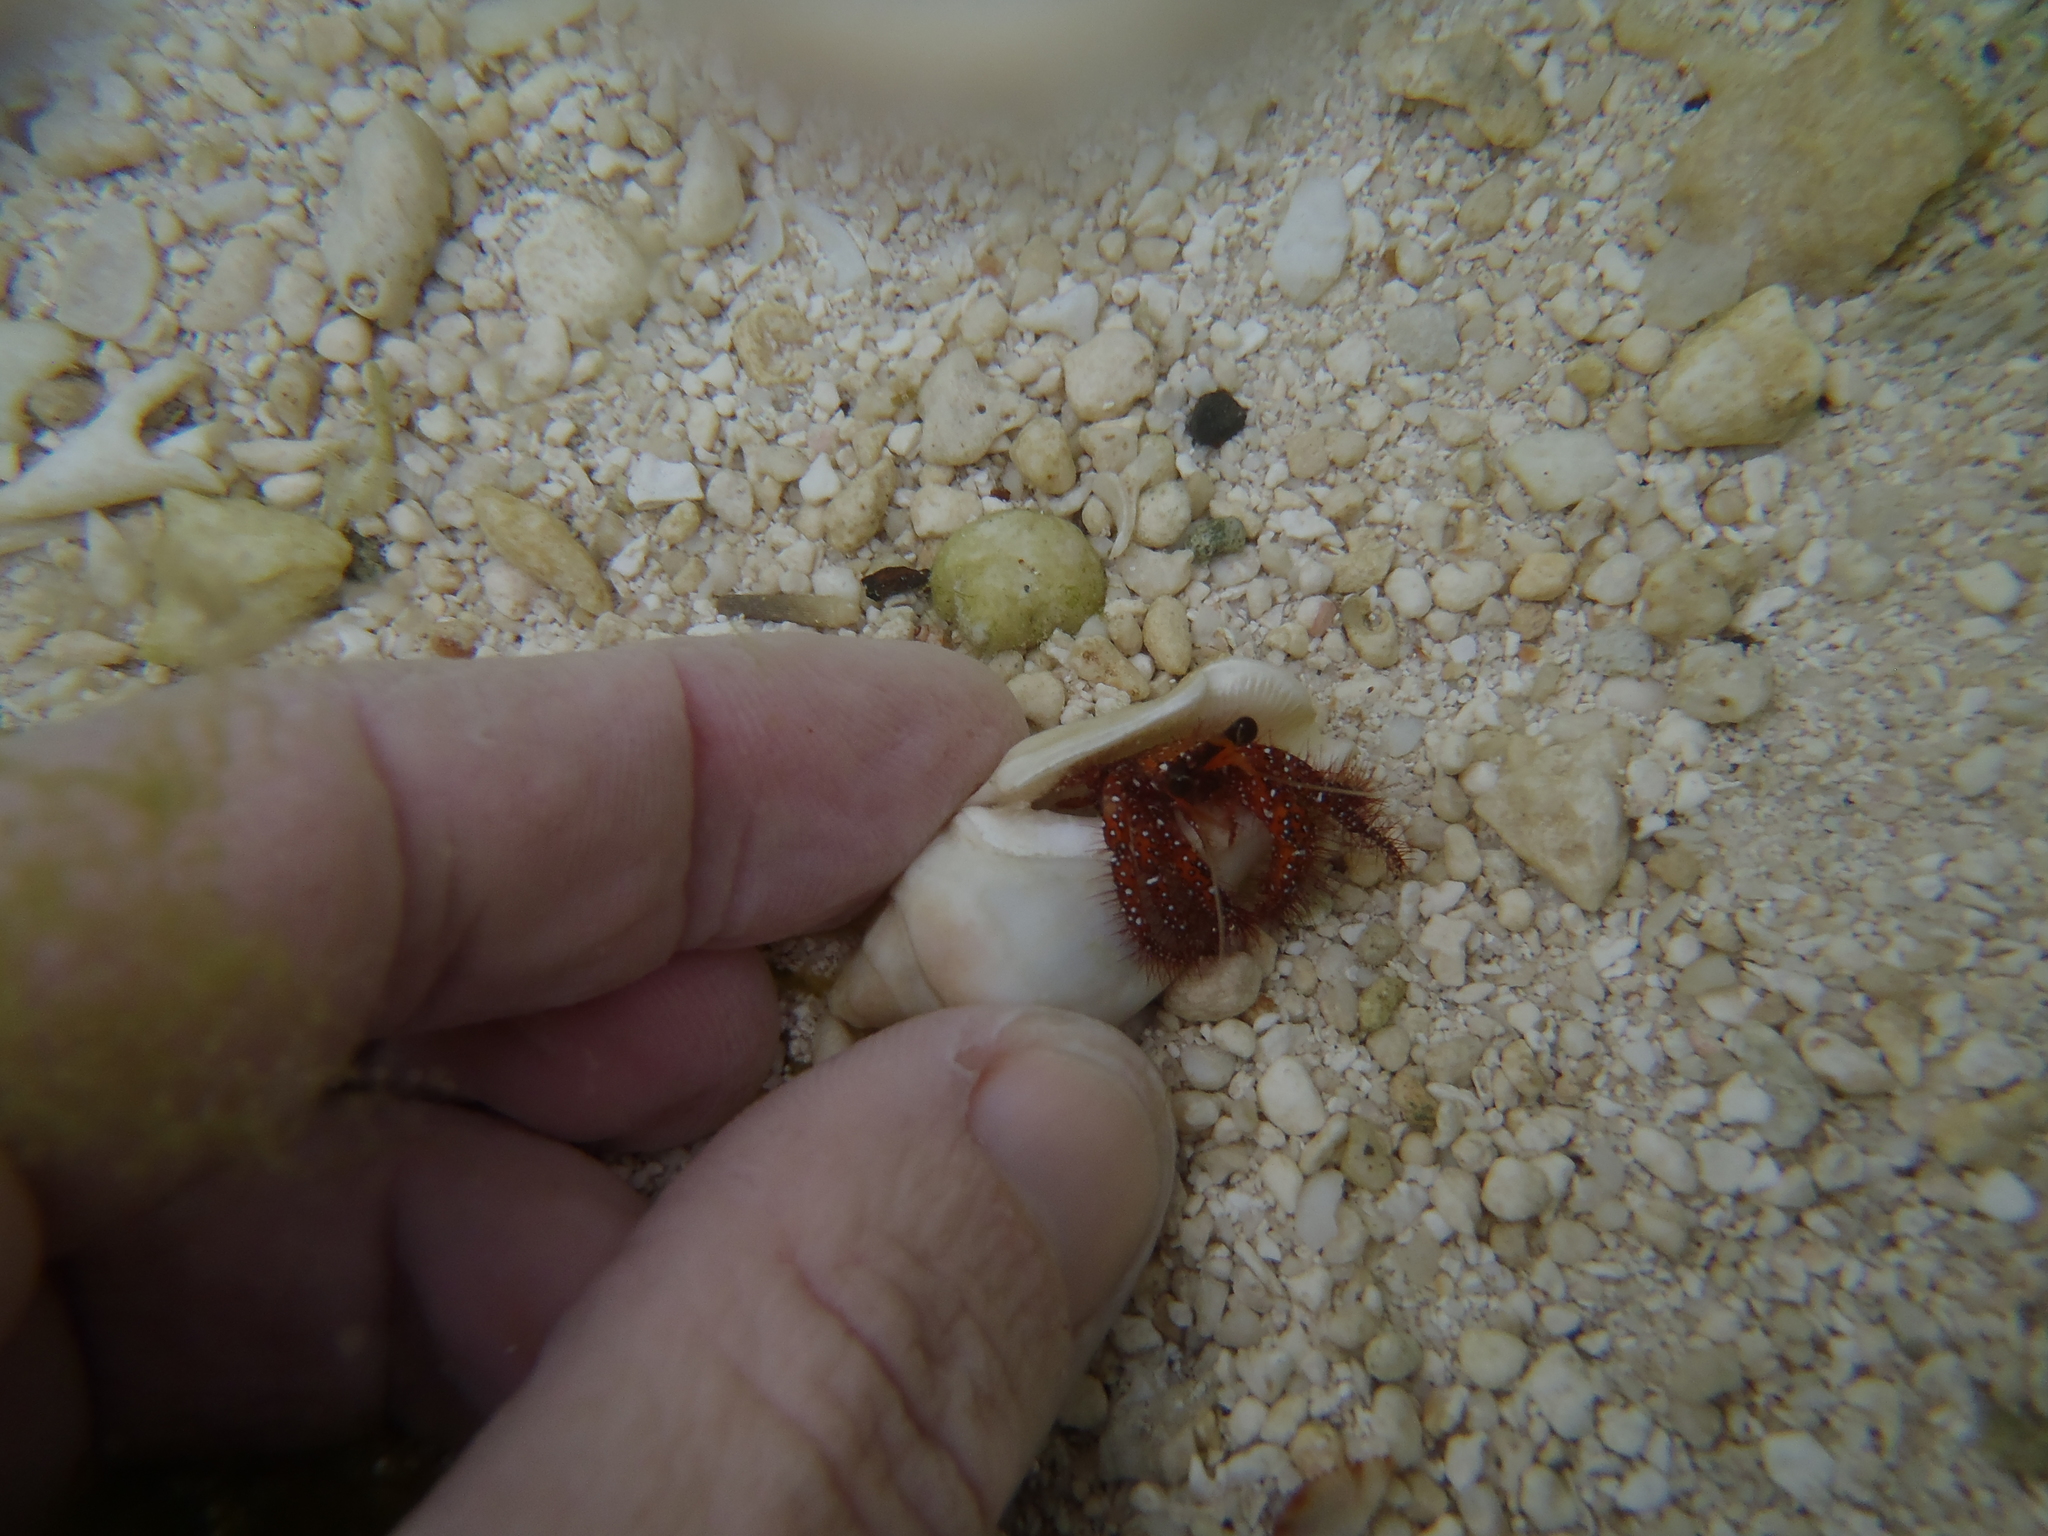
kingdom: Animalia
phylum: Arthropoda
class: Malacostraca
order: Decapoda
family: Diogenidae
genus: Dardanus
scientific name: Dardanus megistos
